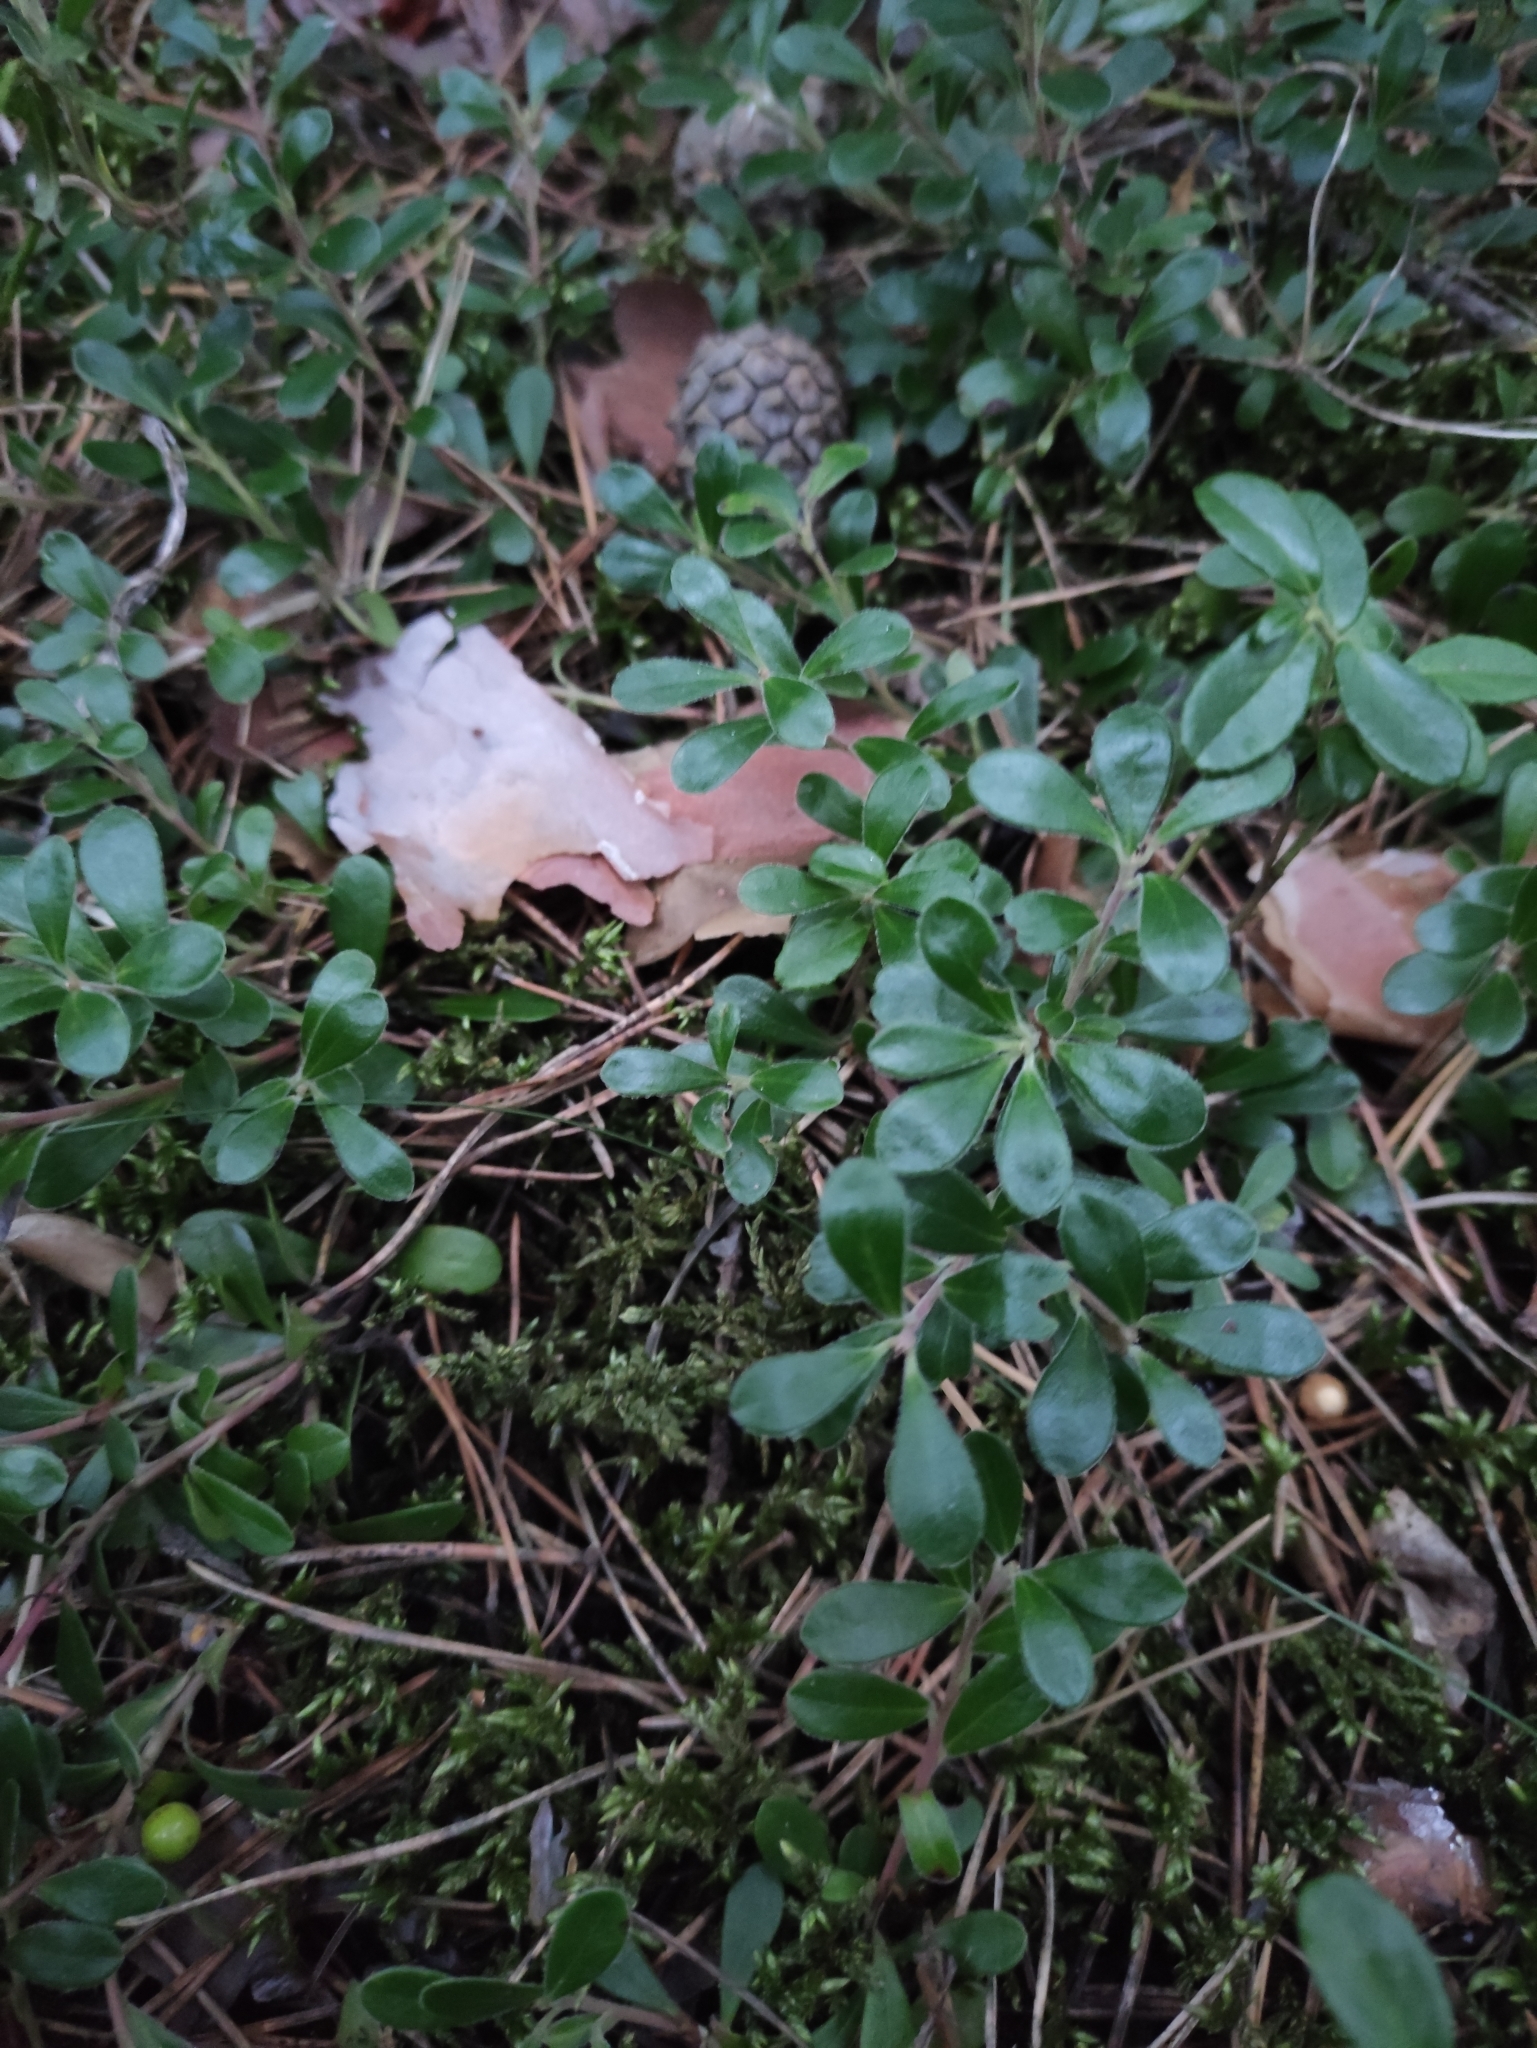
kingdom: Plantae
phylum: Tracheophyta
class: Magnoliopsida
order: Ericales
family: Ericaceae
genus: Arctostaphylos
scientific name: Arctostaphylos uva-ursi
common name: Bearberry
